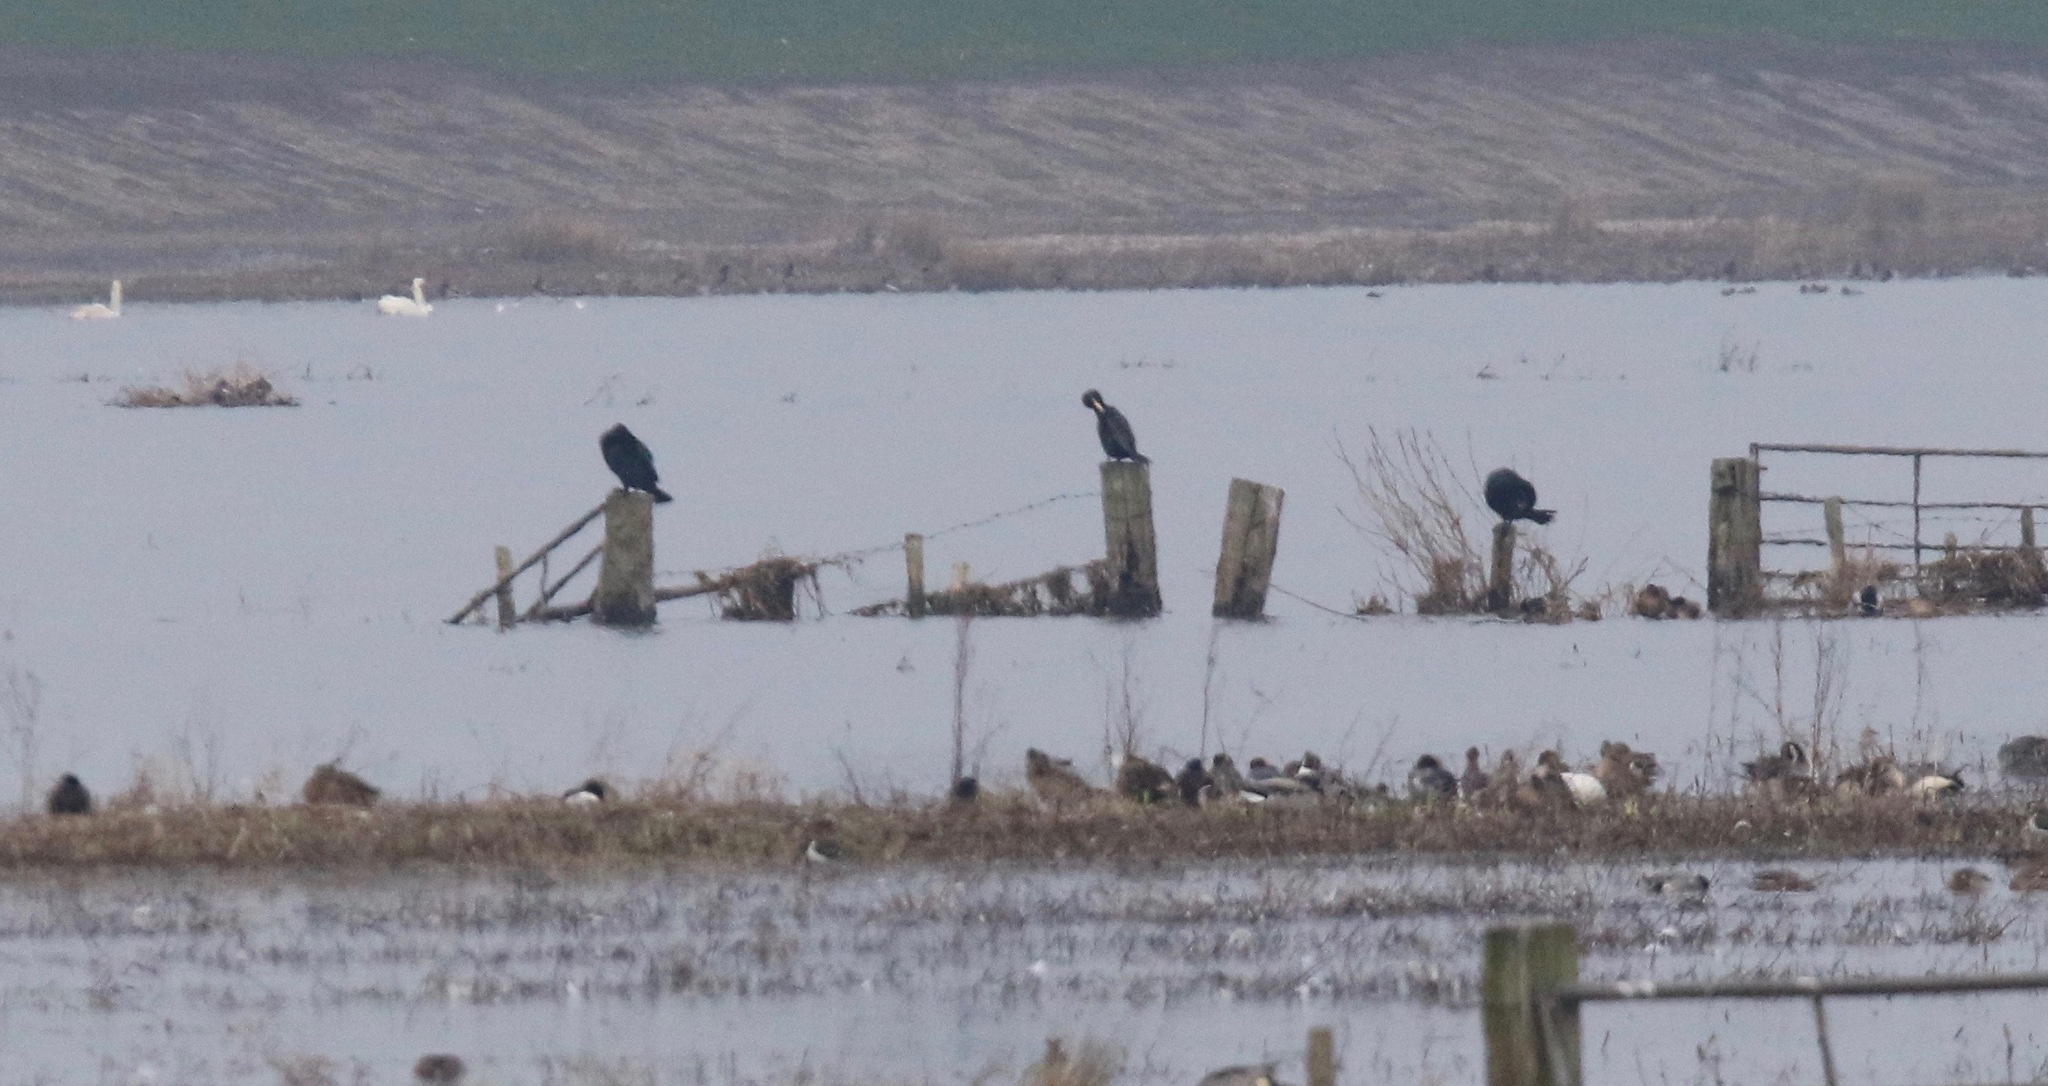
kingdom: Animalia
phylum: Chordata
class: Aves
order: Suliformes
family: Phalacrocoracidae
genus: Phalacrocorax
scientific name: Phalacrocorax carbo
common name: Great cormorant
